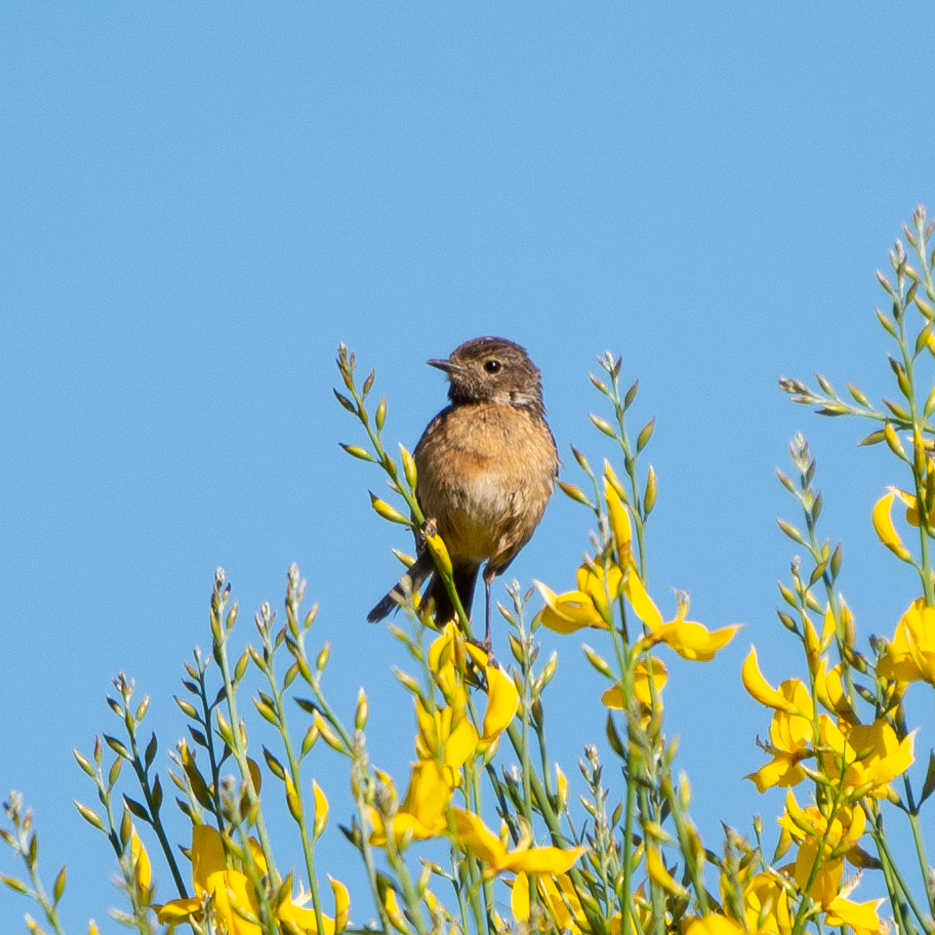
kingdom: Animalia
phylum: Chordata
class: Aves
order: Passeriformes
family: Muscicapidae
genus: Saxicola
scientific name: Saxicola rubicola
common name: European stonechat
